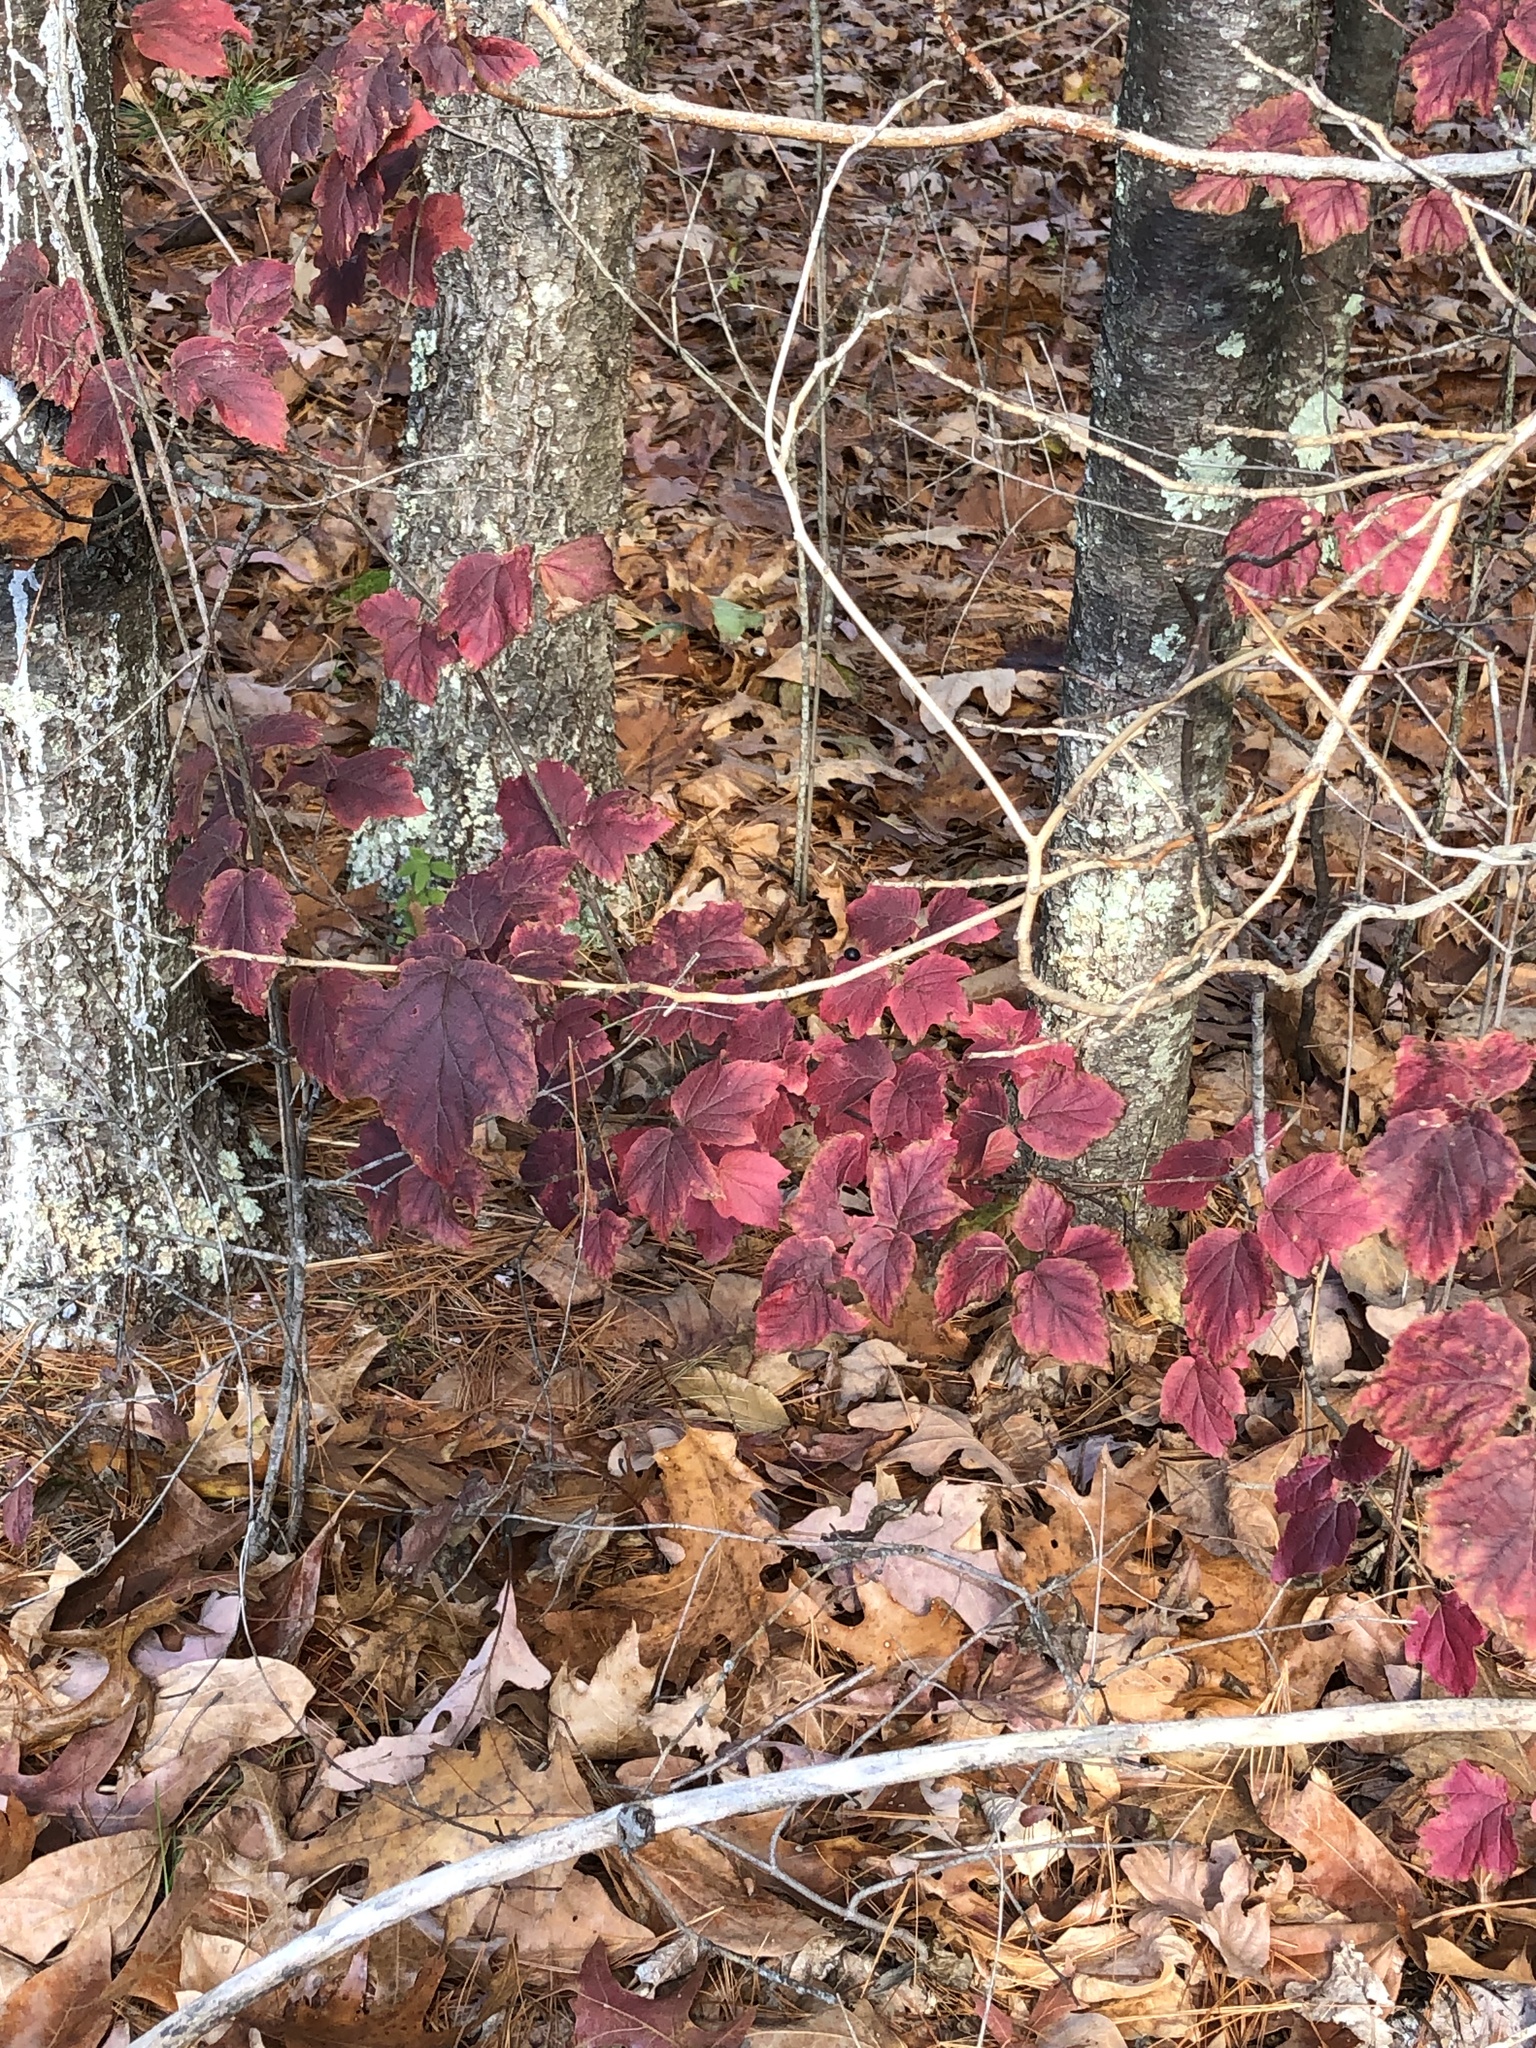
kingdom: Plantae
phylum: Tracheophyta
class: Magnoliopsida
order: Dipsacales
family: Viburnaceae
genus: Viburnum
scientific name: Viburnum acerifolium
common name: Dockmackie
